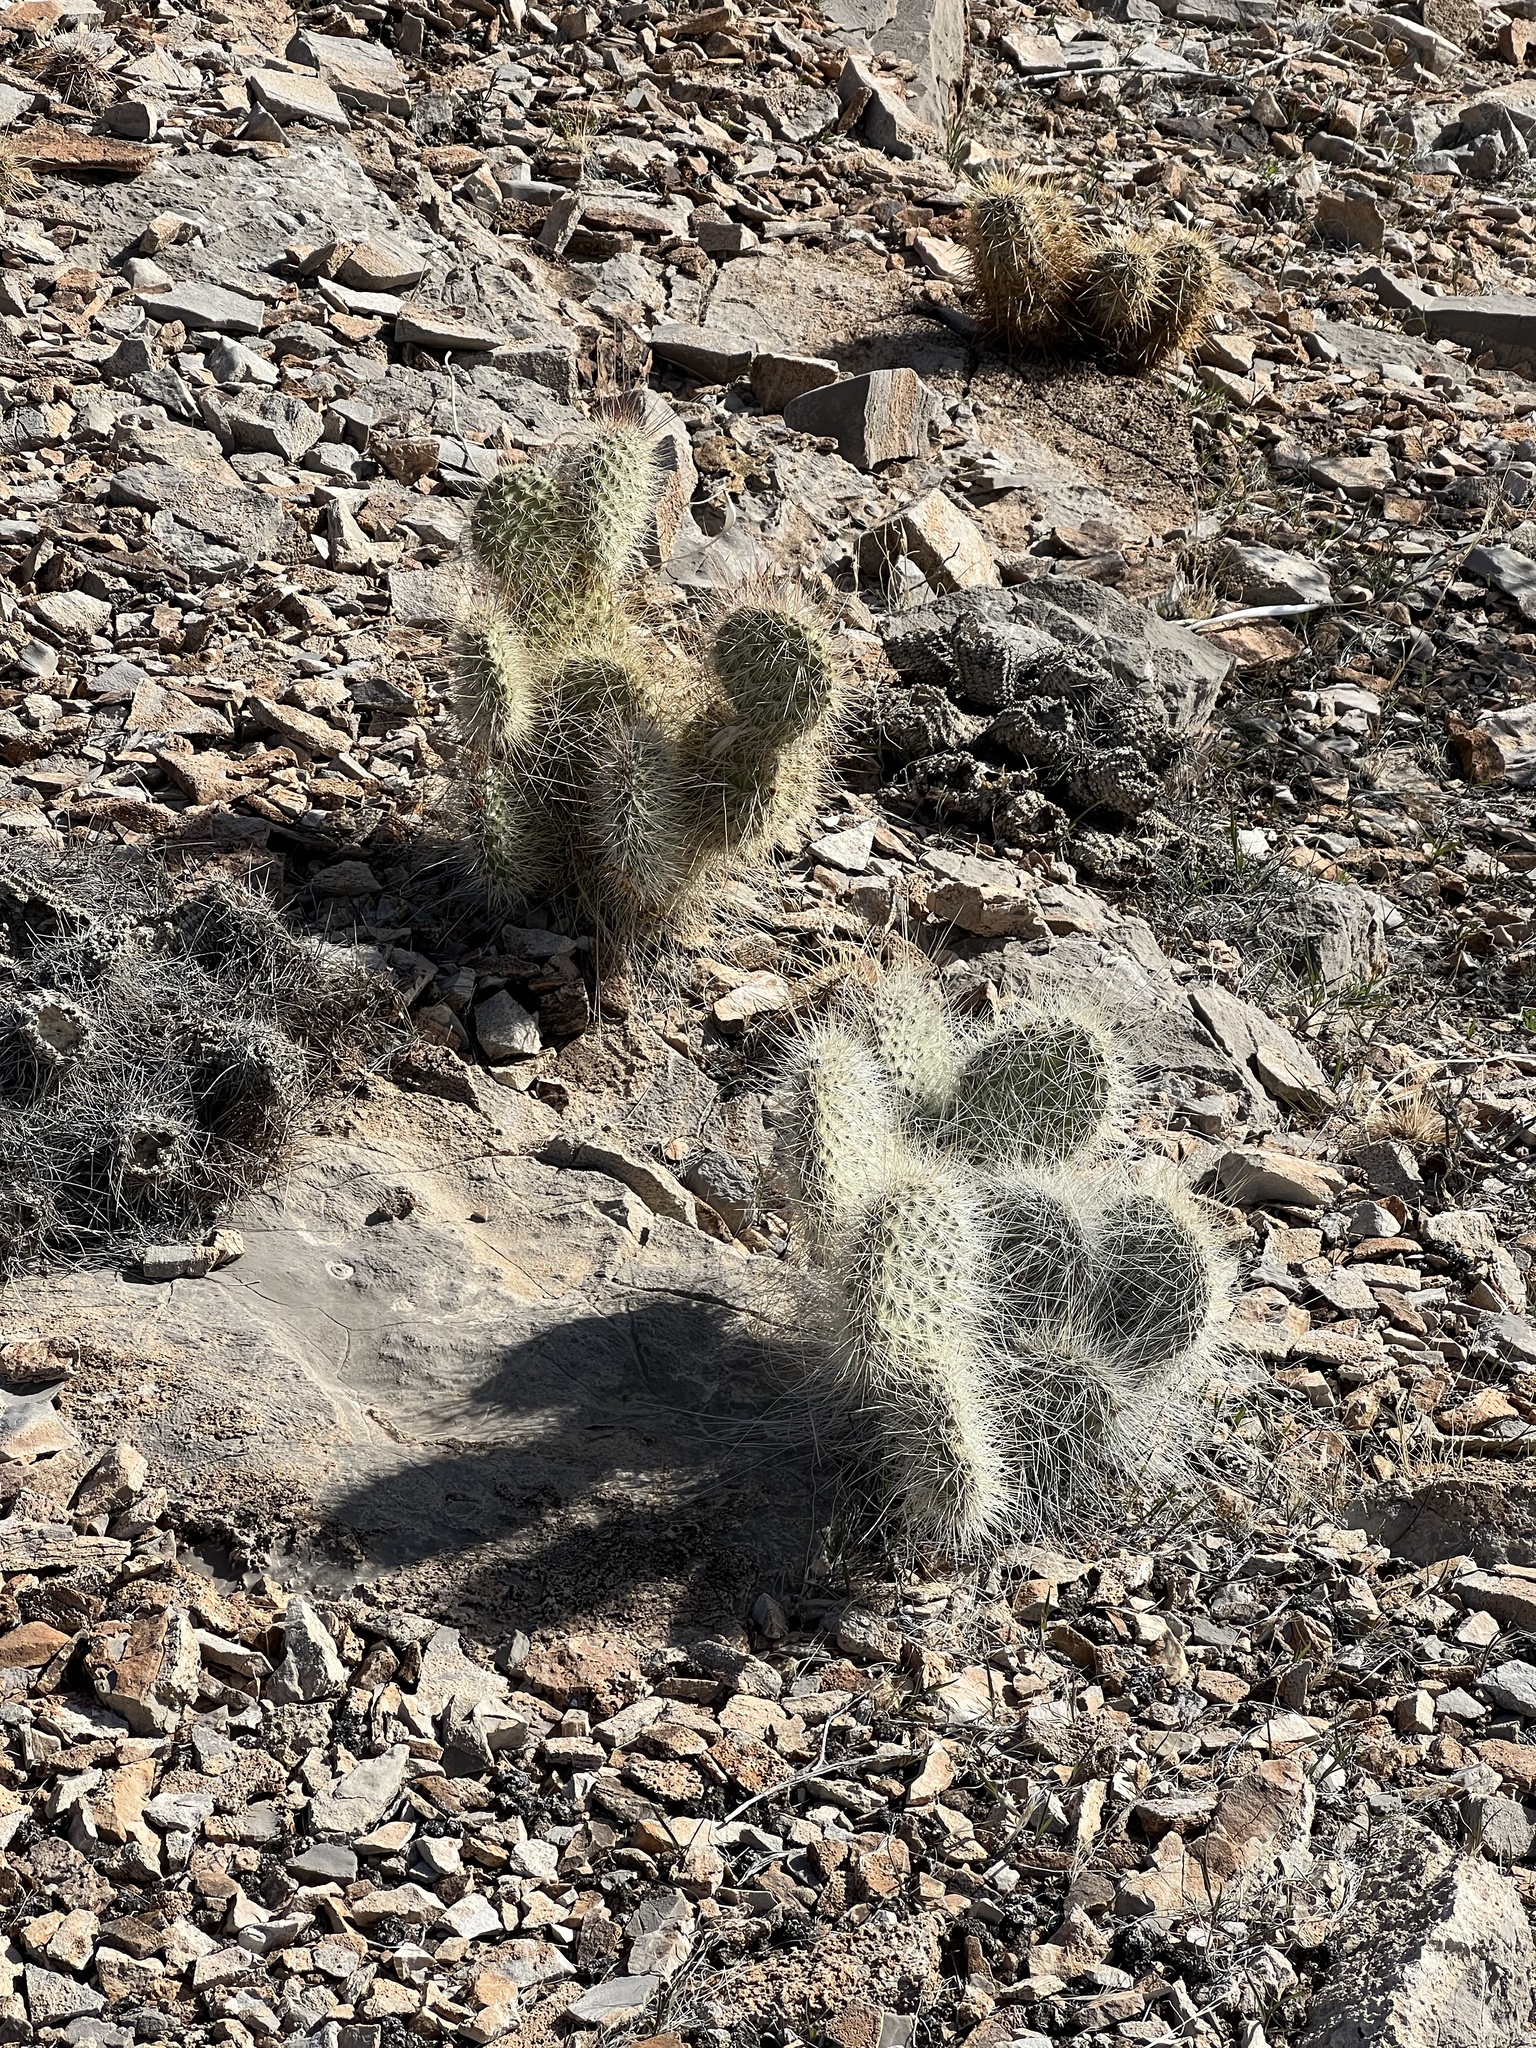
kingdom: Plantae
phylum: Tracheophyta
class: Magnoliopsida
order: Caryophyllales
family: Cactaceae
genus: Opuntia
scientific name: Opuntia polyacantha
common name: Plains prickly-pear
